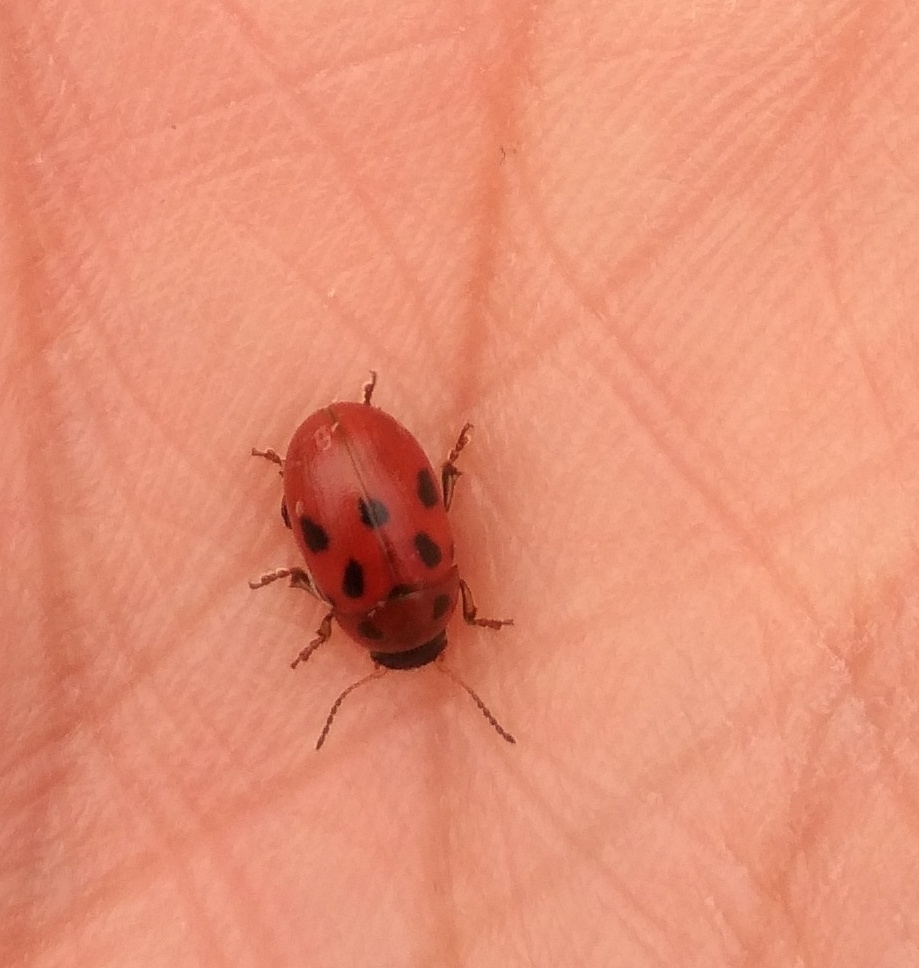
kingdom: Animalia
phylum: Arthropoda
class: Insecta
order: Coleoptera
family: Chrysomelidae
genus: Gonioctena
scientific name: Gonioctena fornicata
